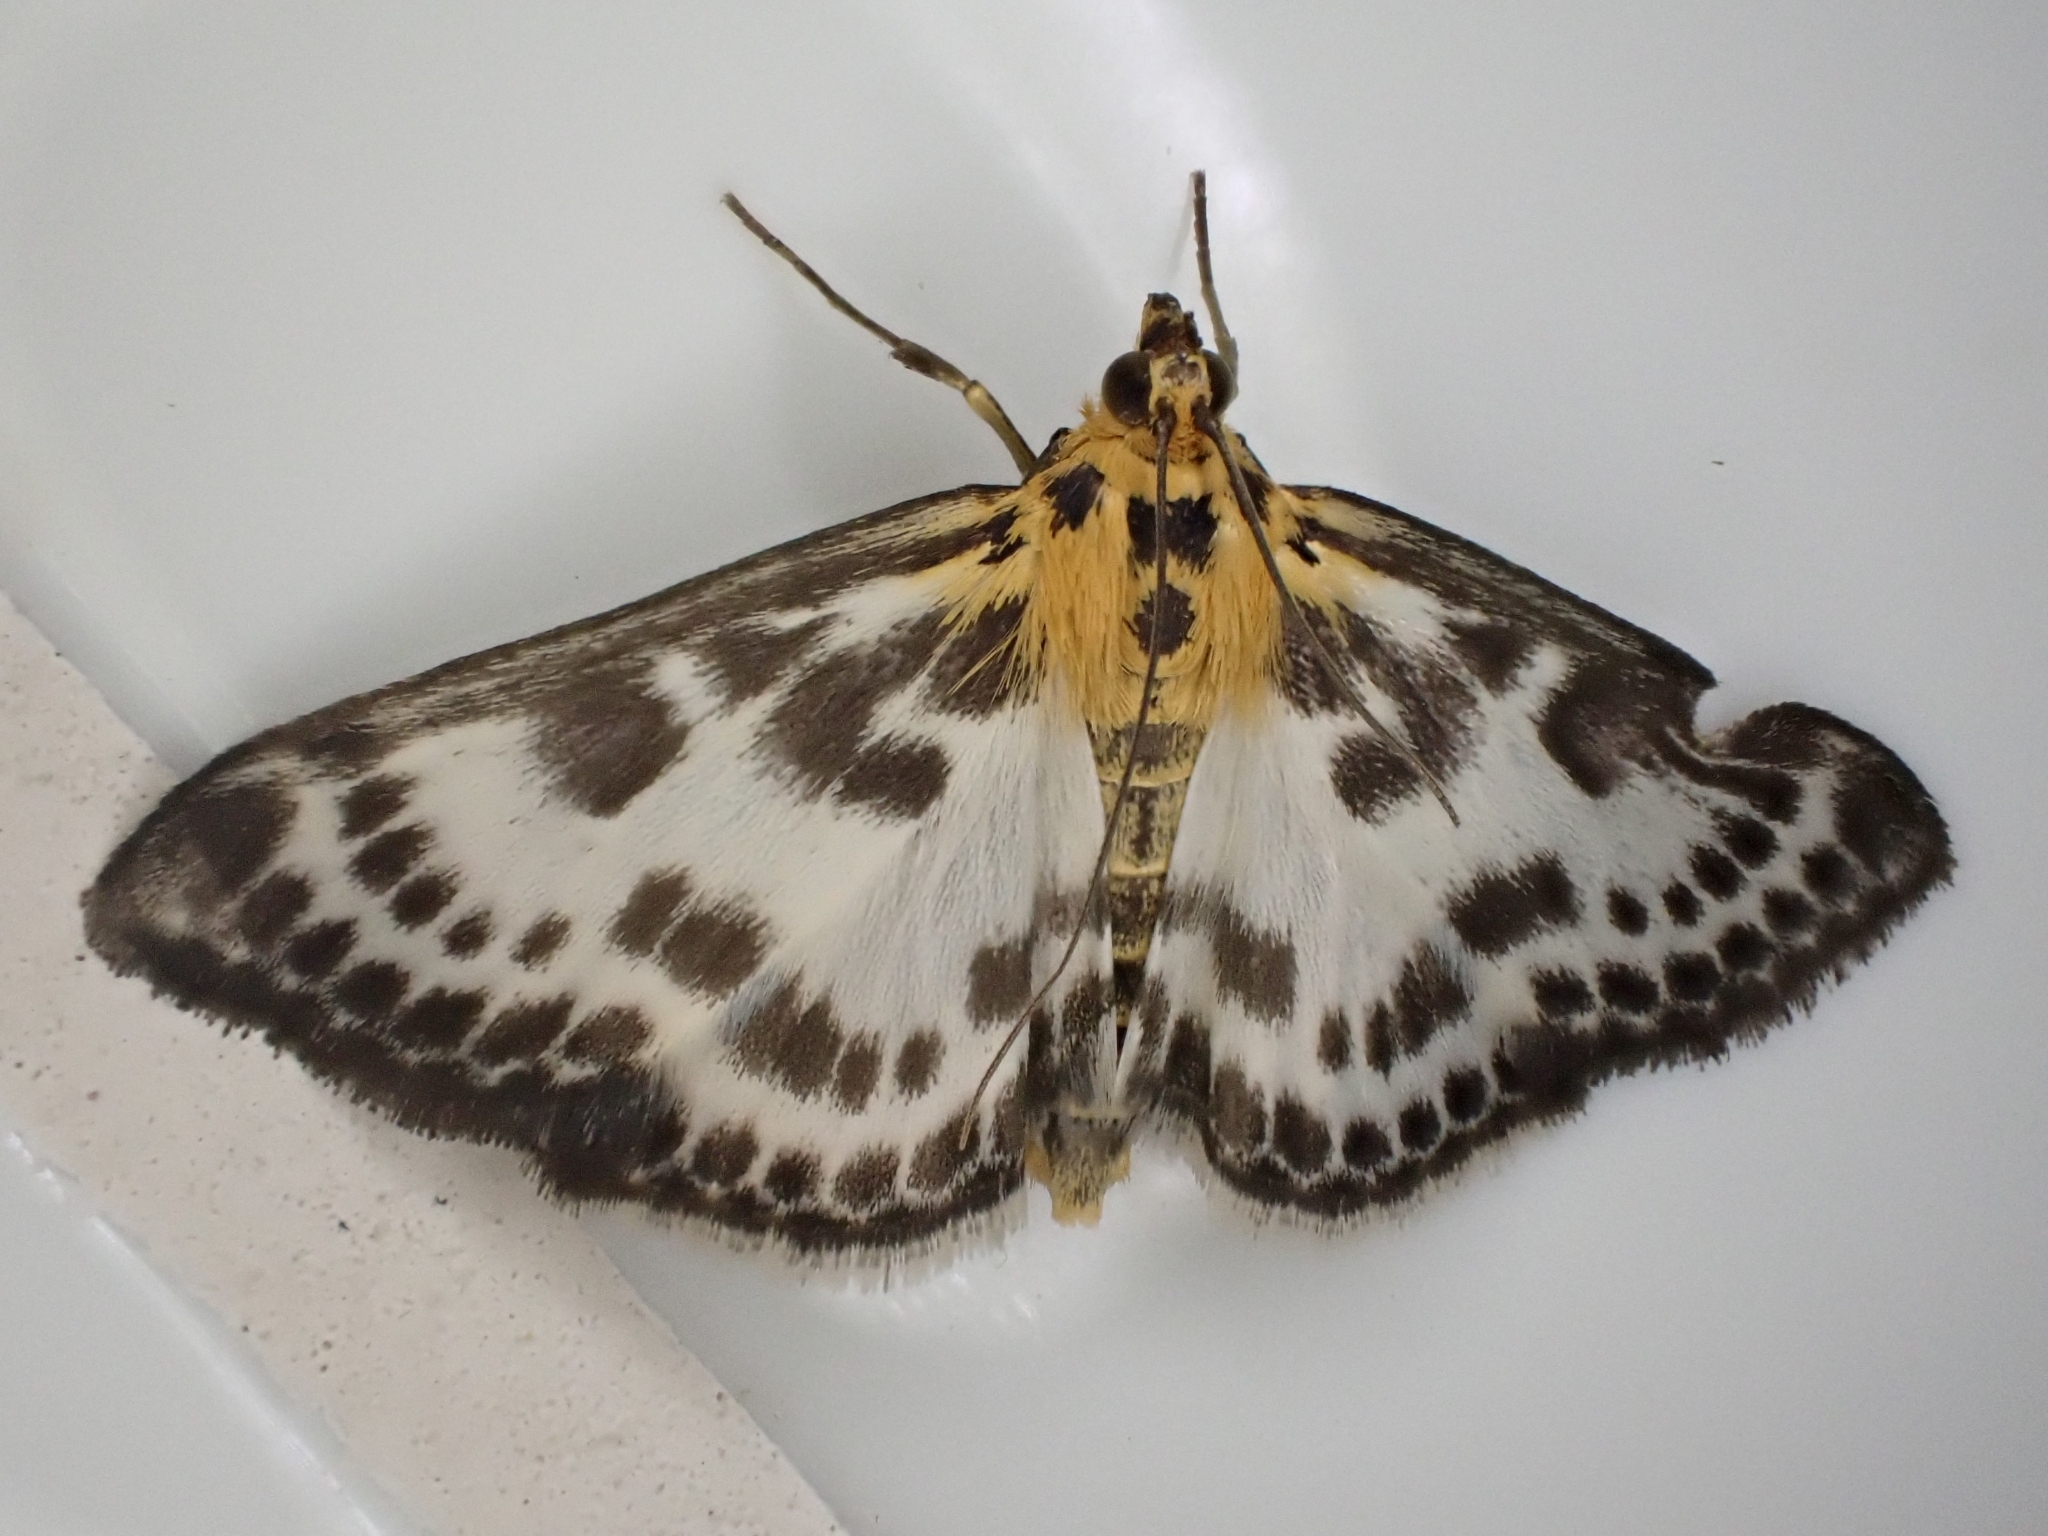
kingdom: Animalia
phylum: Arthropoda
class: Insecta
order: Lepidoptera
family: Crambidae
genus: Anania
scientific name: Anania hortulata
